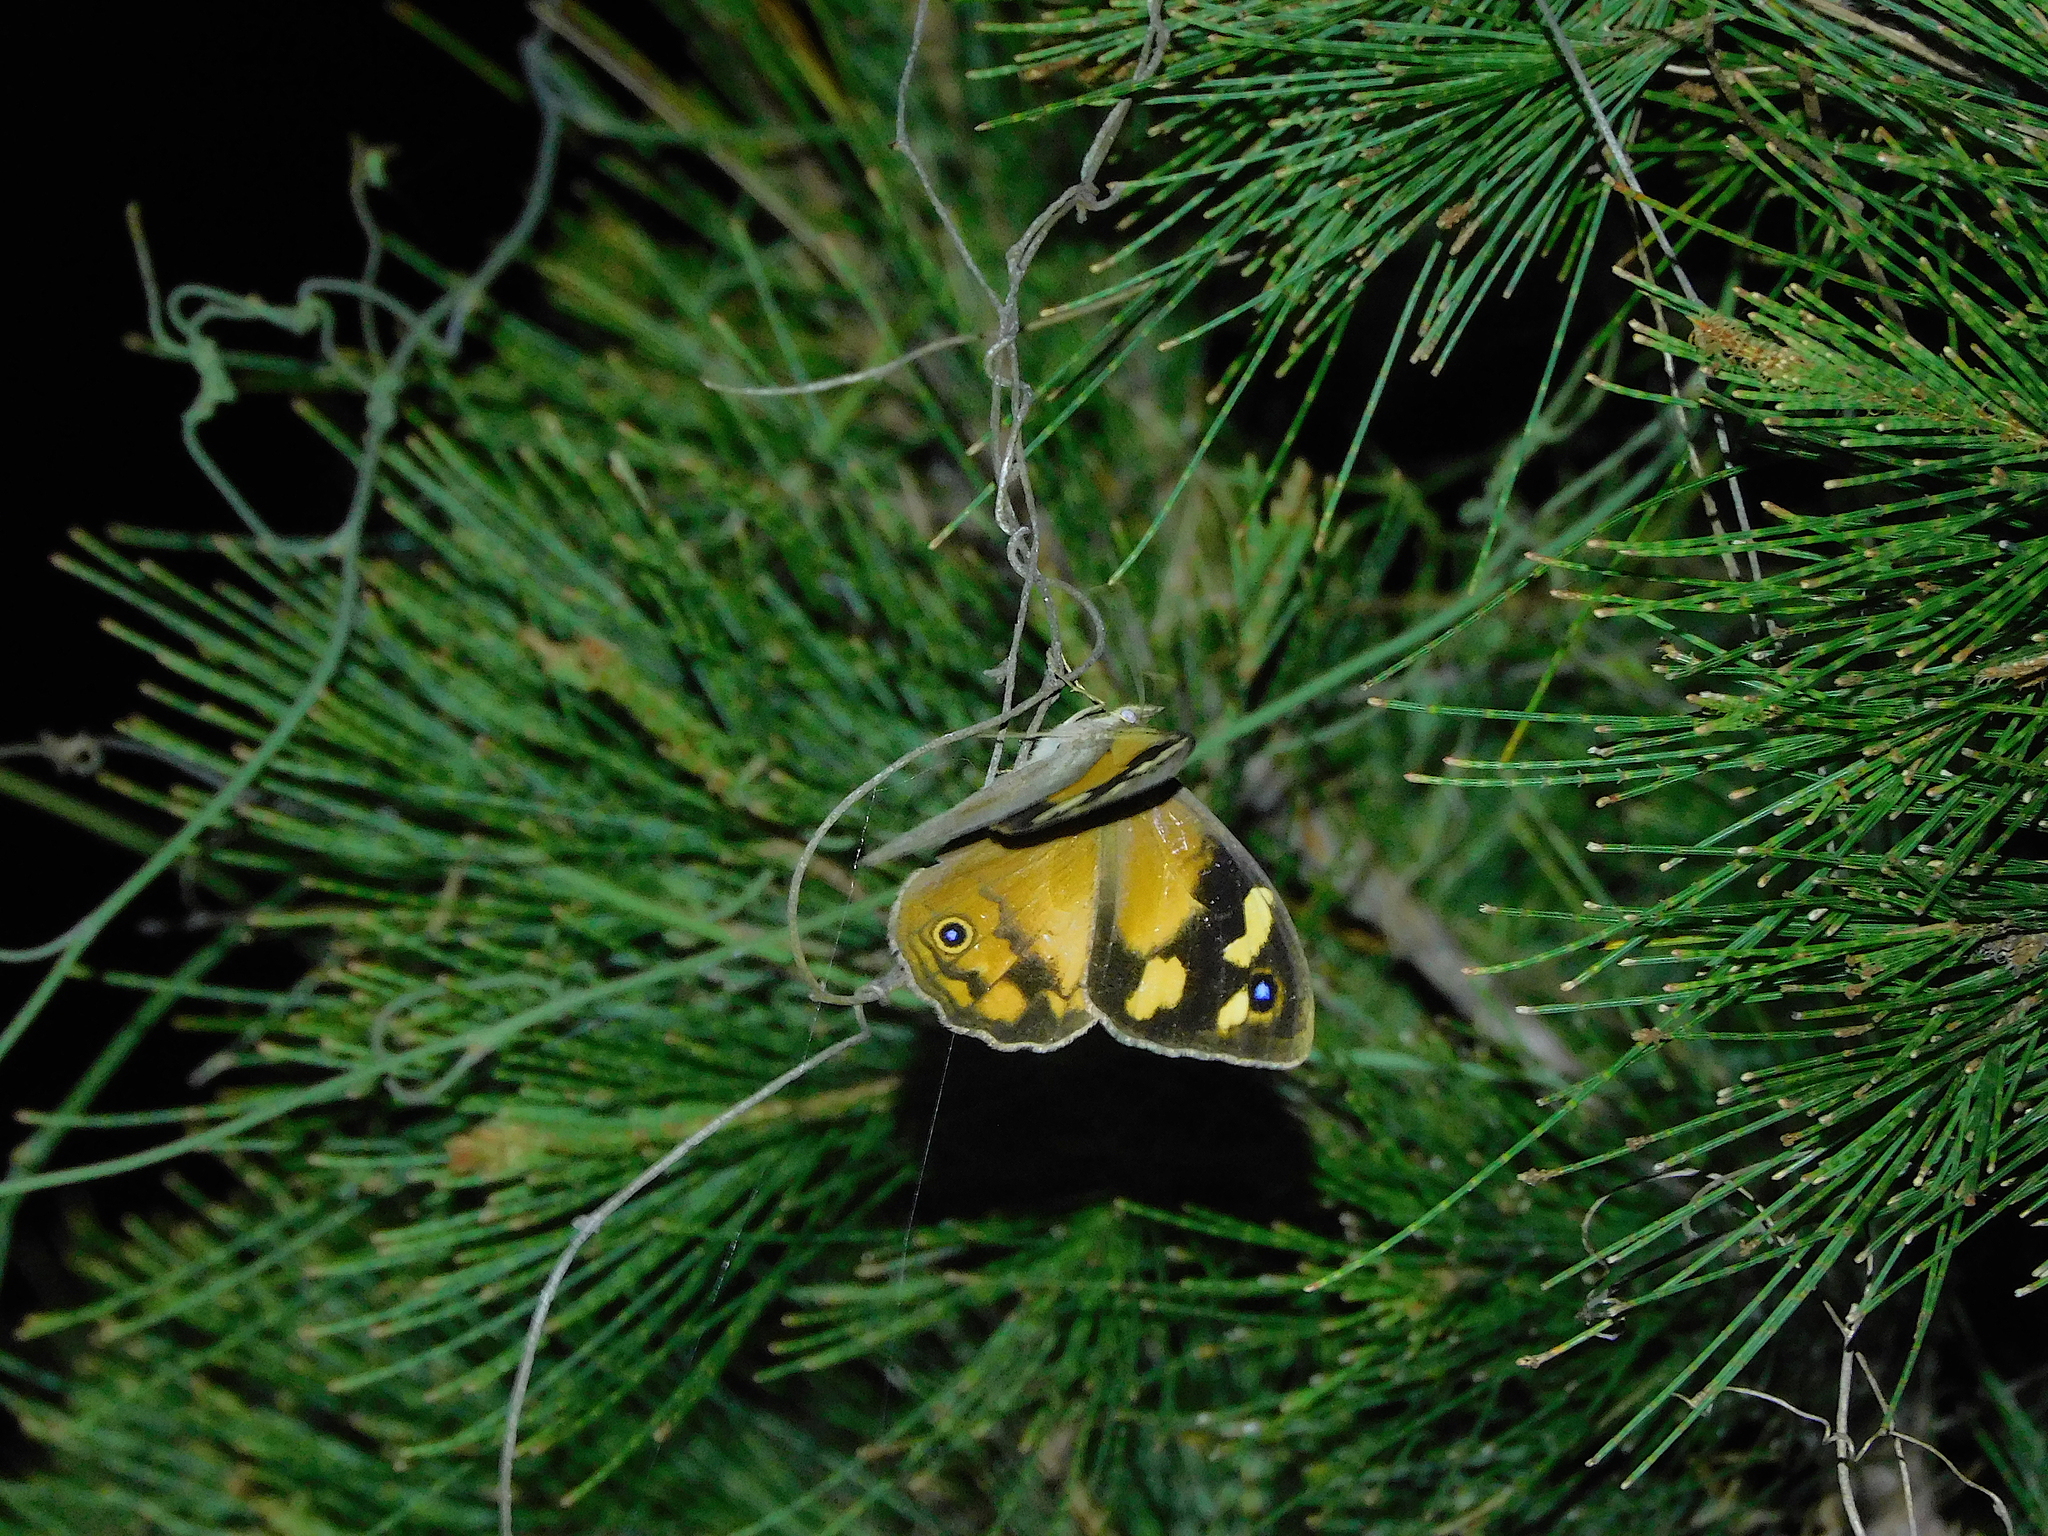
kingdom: Animalia
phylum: Arthropoda
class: Insecta
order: Lepidoptera
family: Nymphalidae
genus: Heteronympha
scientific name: Heteronympha merope
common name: Common brown
